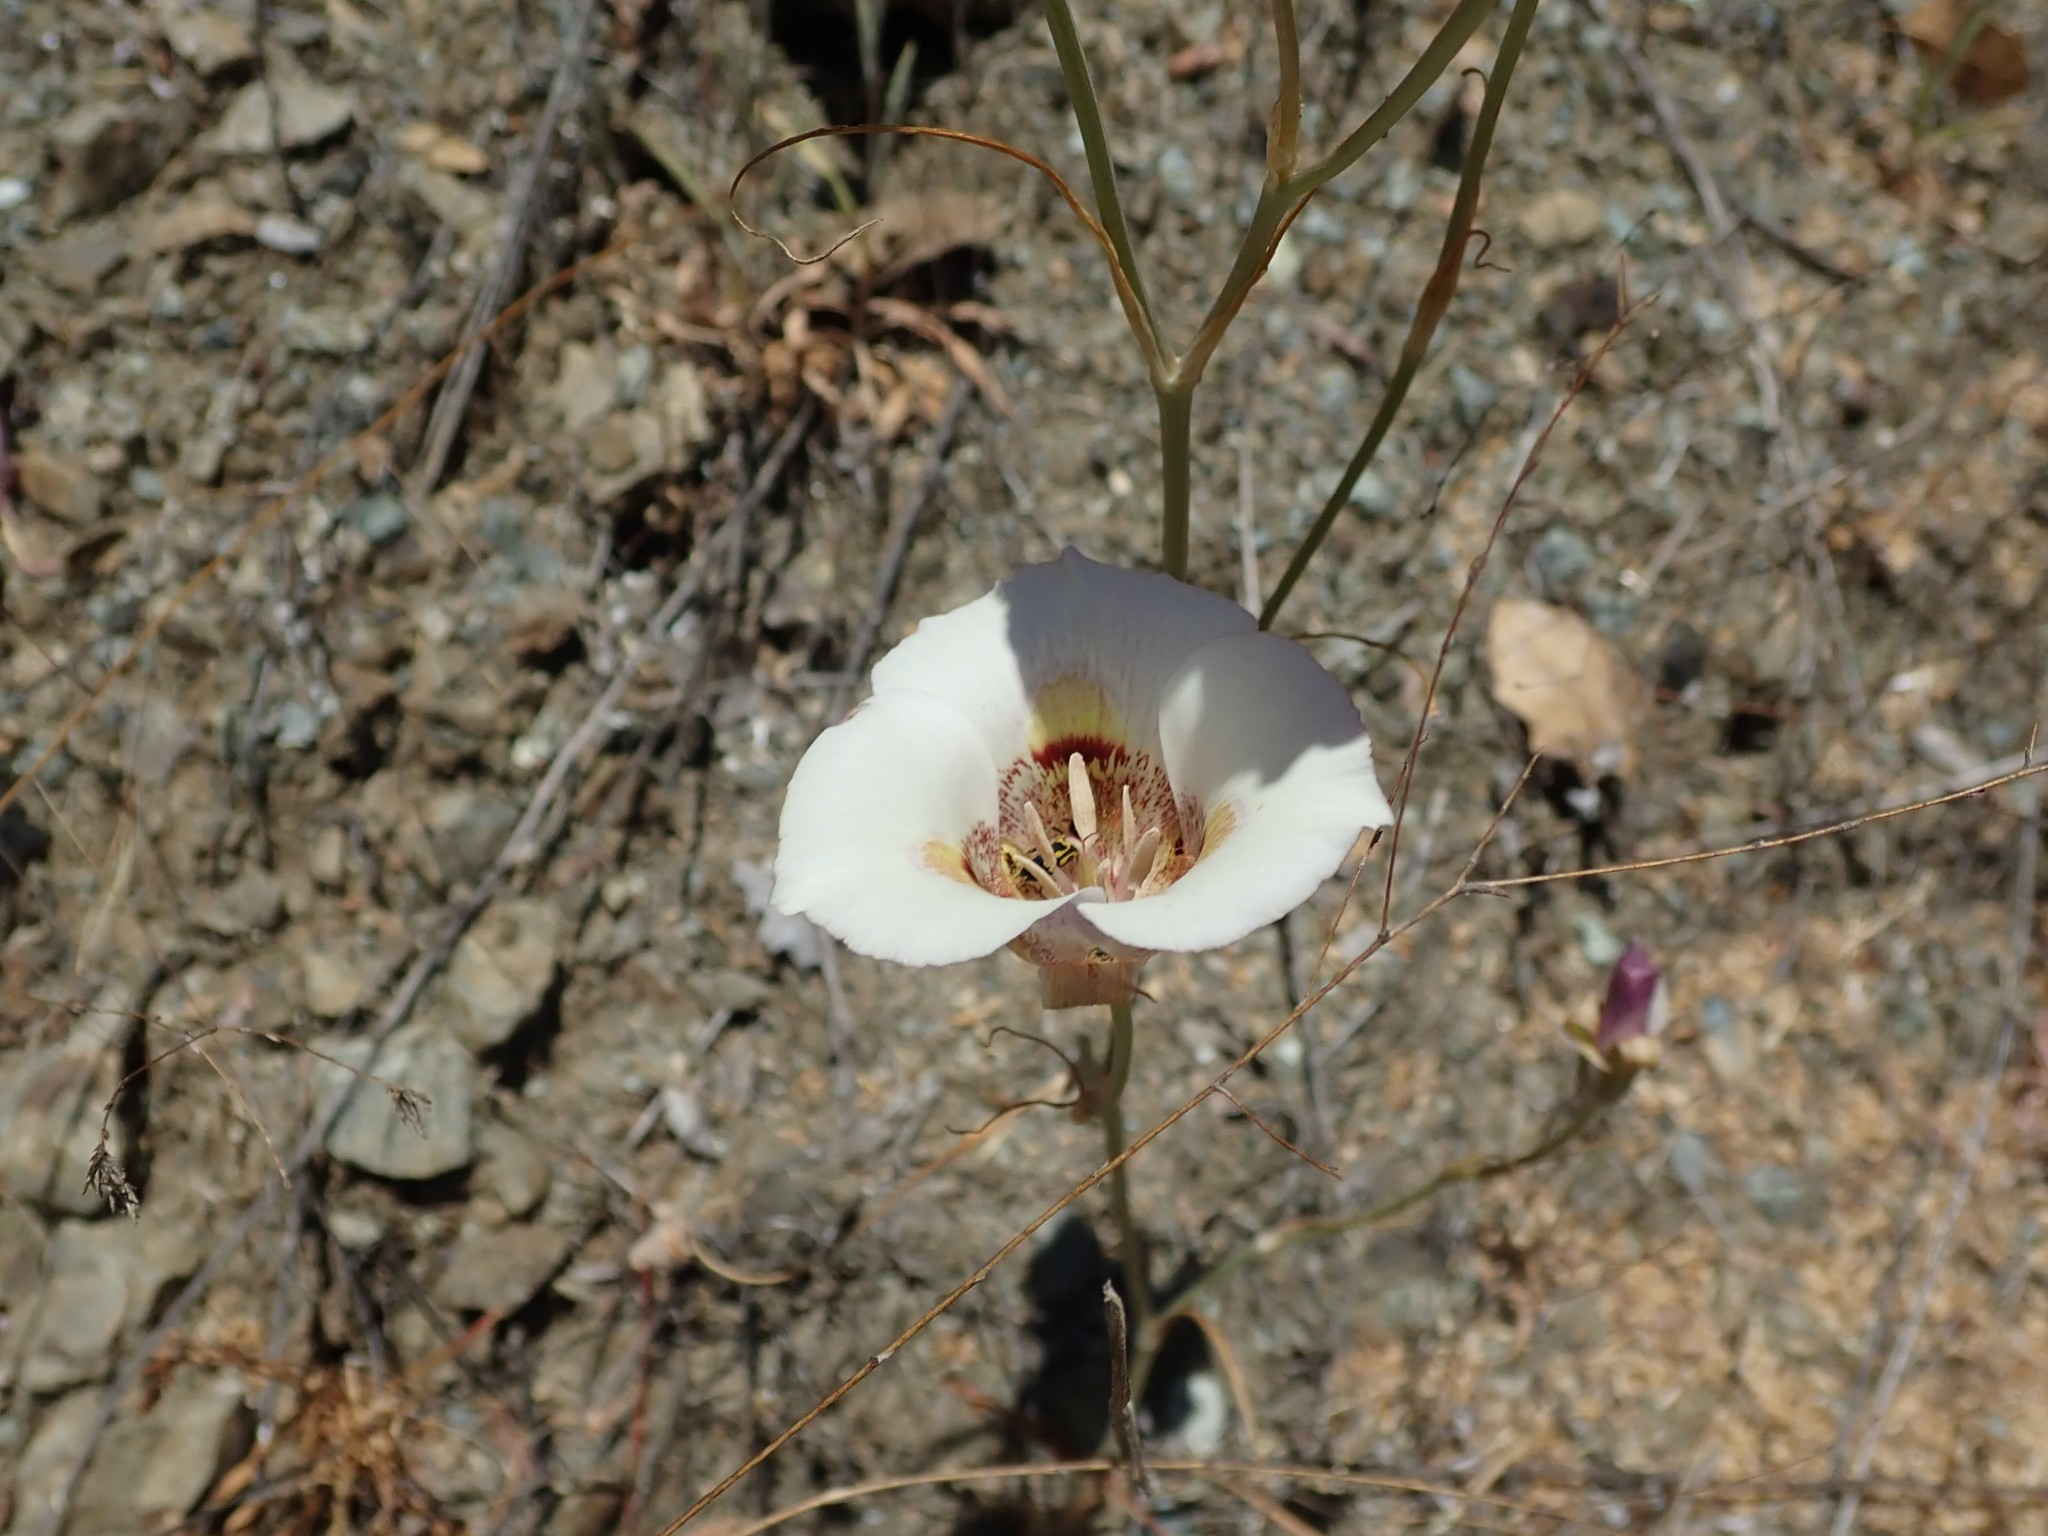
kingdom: Plantae
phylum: Tracheophyta
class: Liliopsida
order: Liliales
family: Liliaceae
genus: Calochortus
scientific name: Calochortus argillosus
